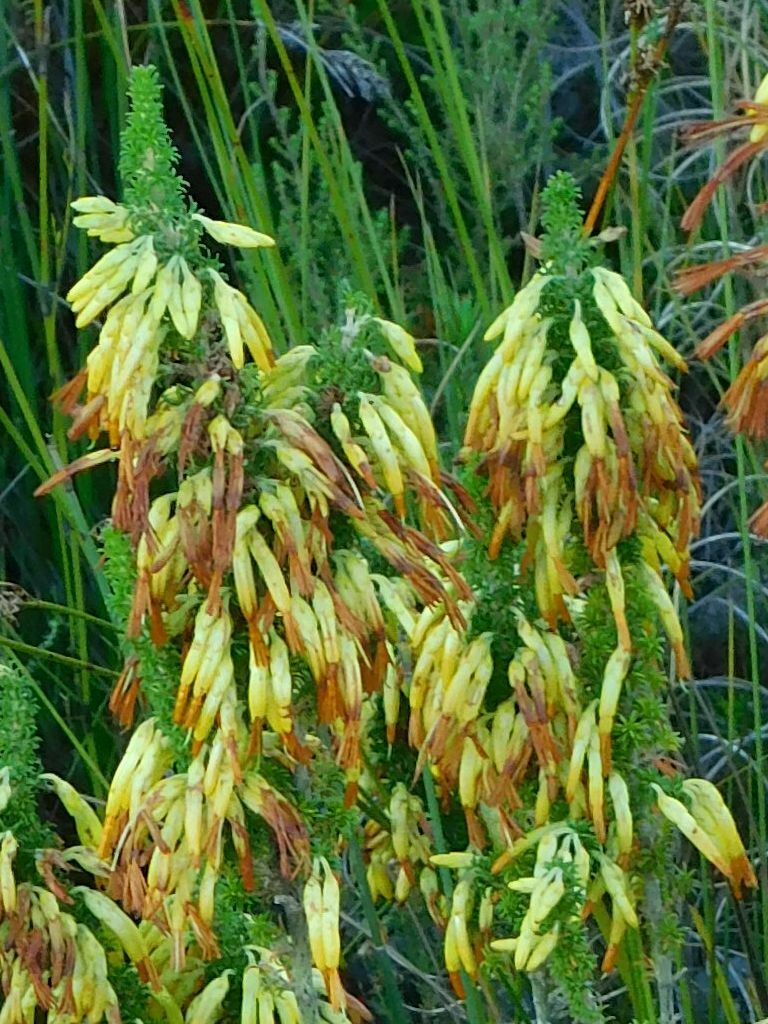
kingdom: Plantae
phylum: Tracheophyta
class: Magnoliopsida
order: Ericales
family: Ericaceae
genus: Erica
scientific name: Erica coccinea
